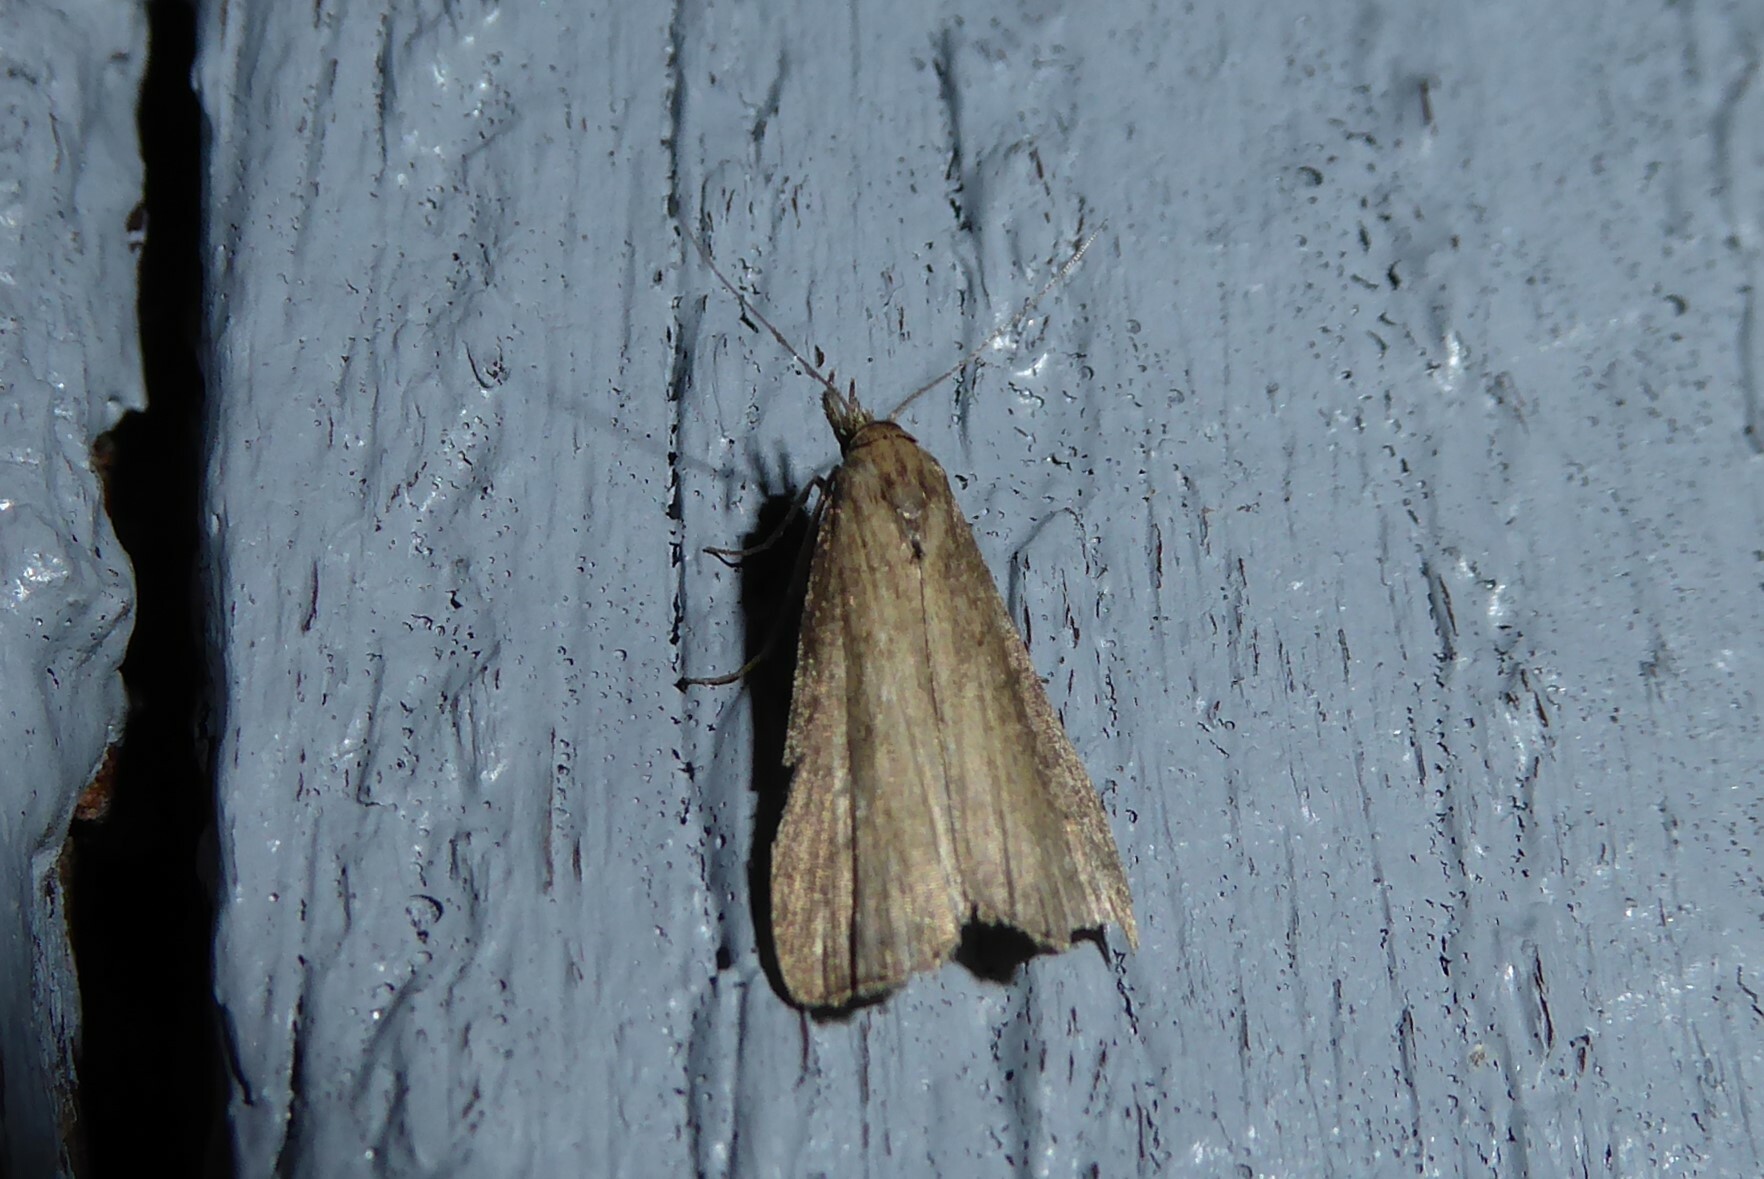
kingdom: Animalia
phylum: Arthropoda
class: Insecta
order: Lepidoptera
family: Erebidae
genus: Schrankia
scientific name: Schrankia costaestrigalis
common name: Pinion-streaked snout
